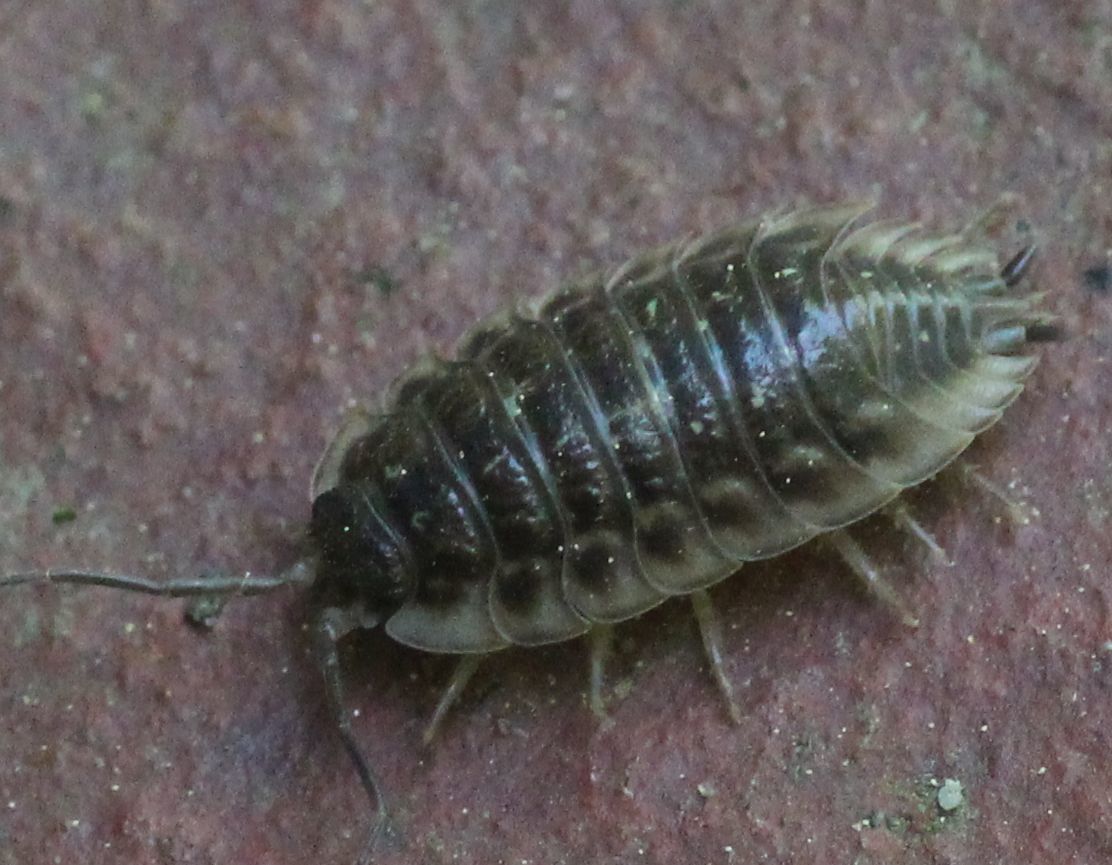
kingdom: Animalia
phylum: Arthropoda
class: Malacostraca
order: Isopoda
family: Oniscidae
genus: Oniscus
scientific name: Oniscus asellus
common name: Common shiny woodlouse
